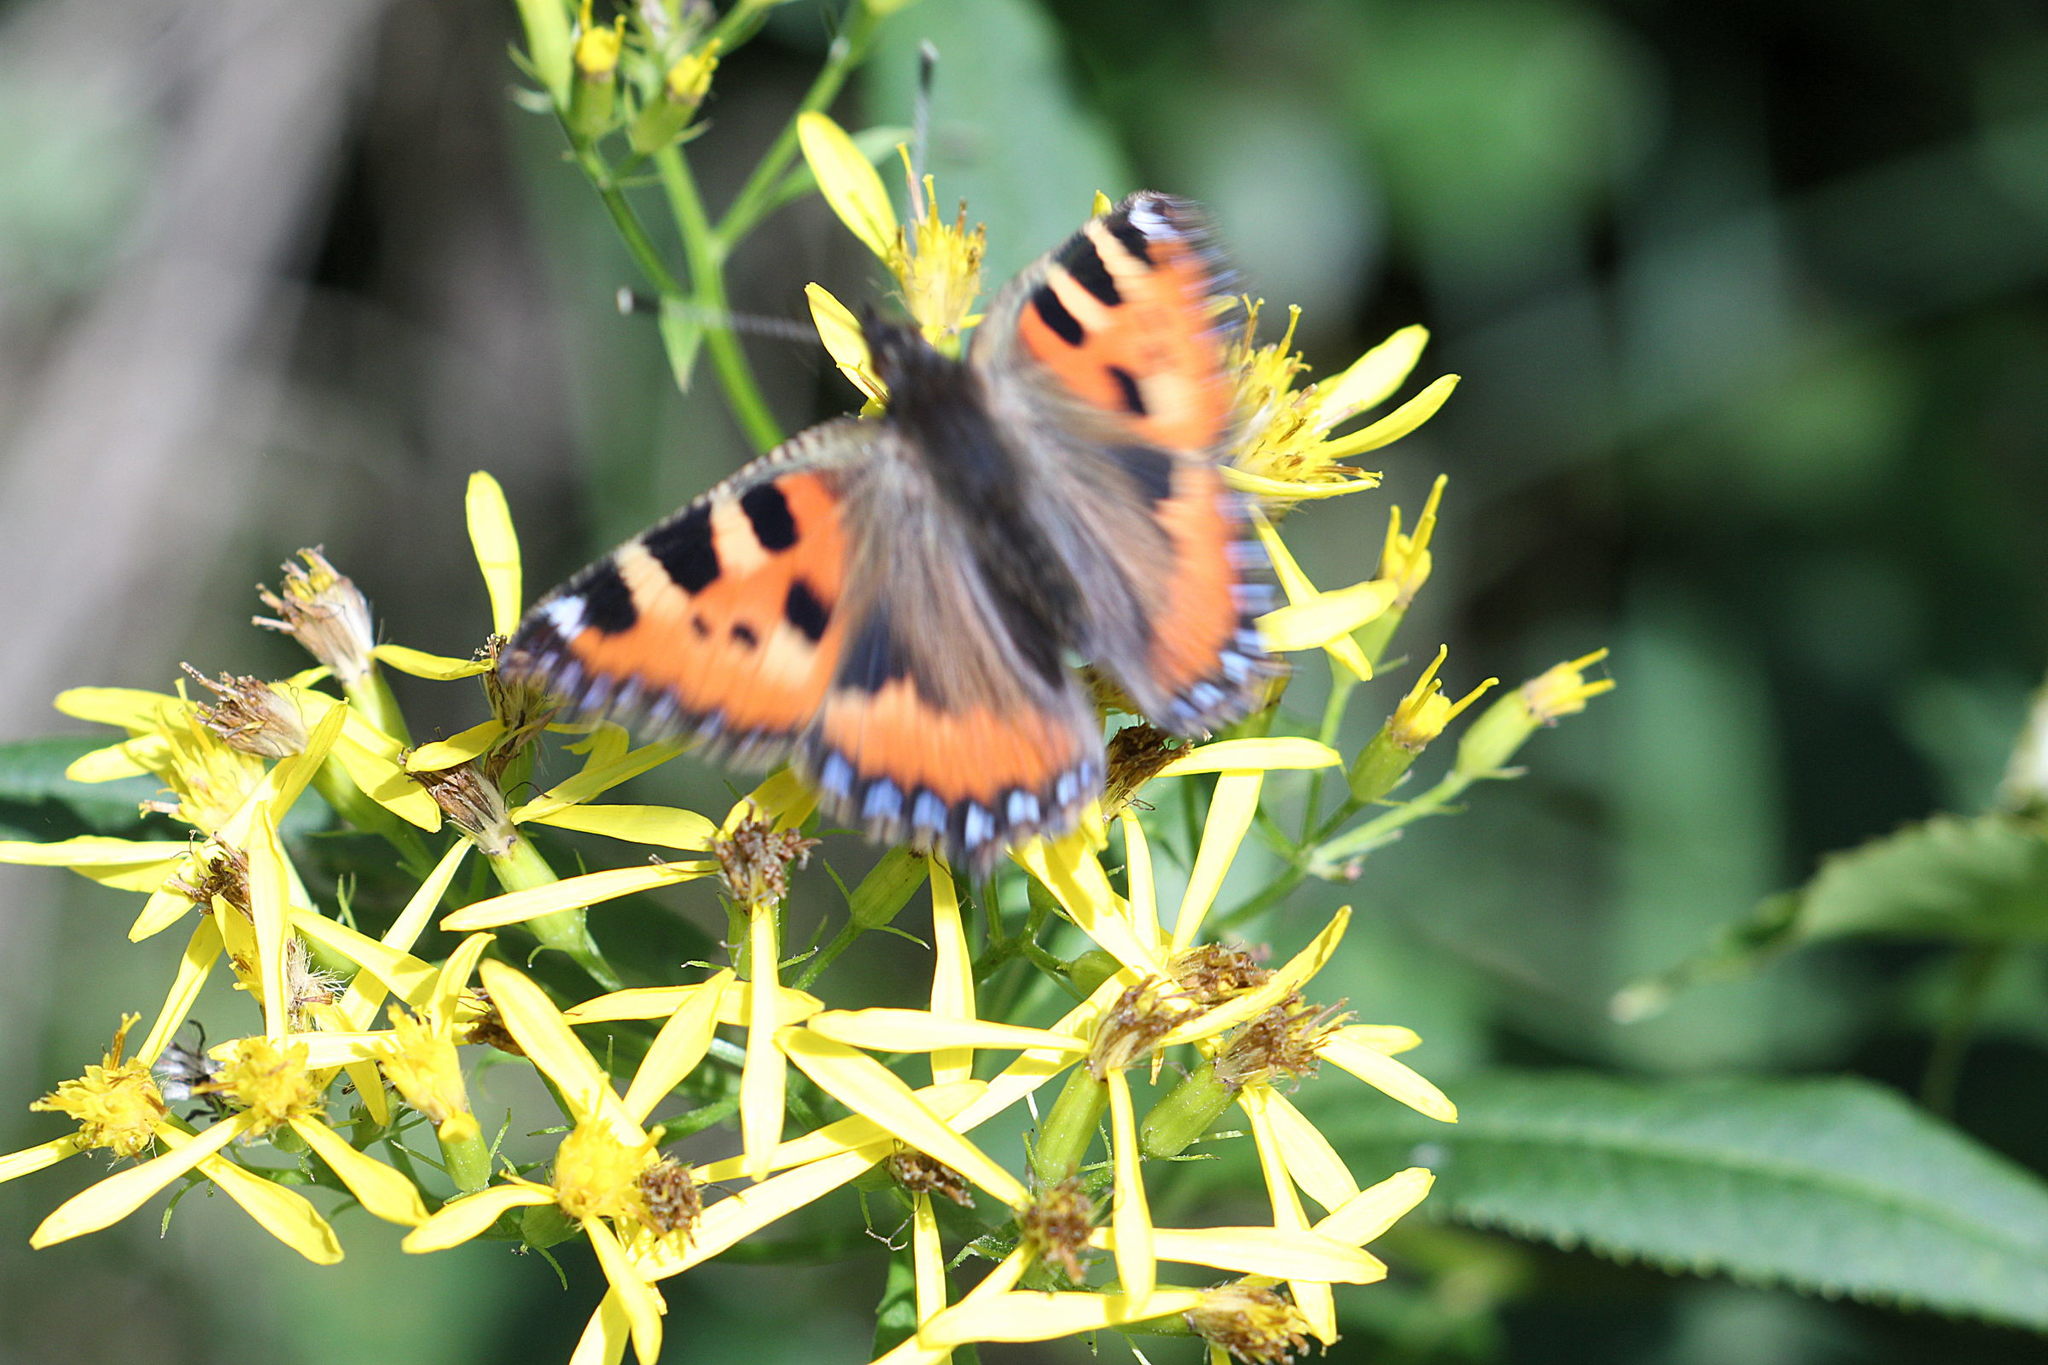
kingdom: Animalia
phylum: Arthropoda
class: Insecta
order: Lepidoptera
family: Nymphalidae
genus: Aglais
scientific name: Aglais urticae
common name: Small tortoiseshell
